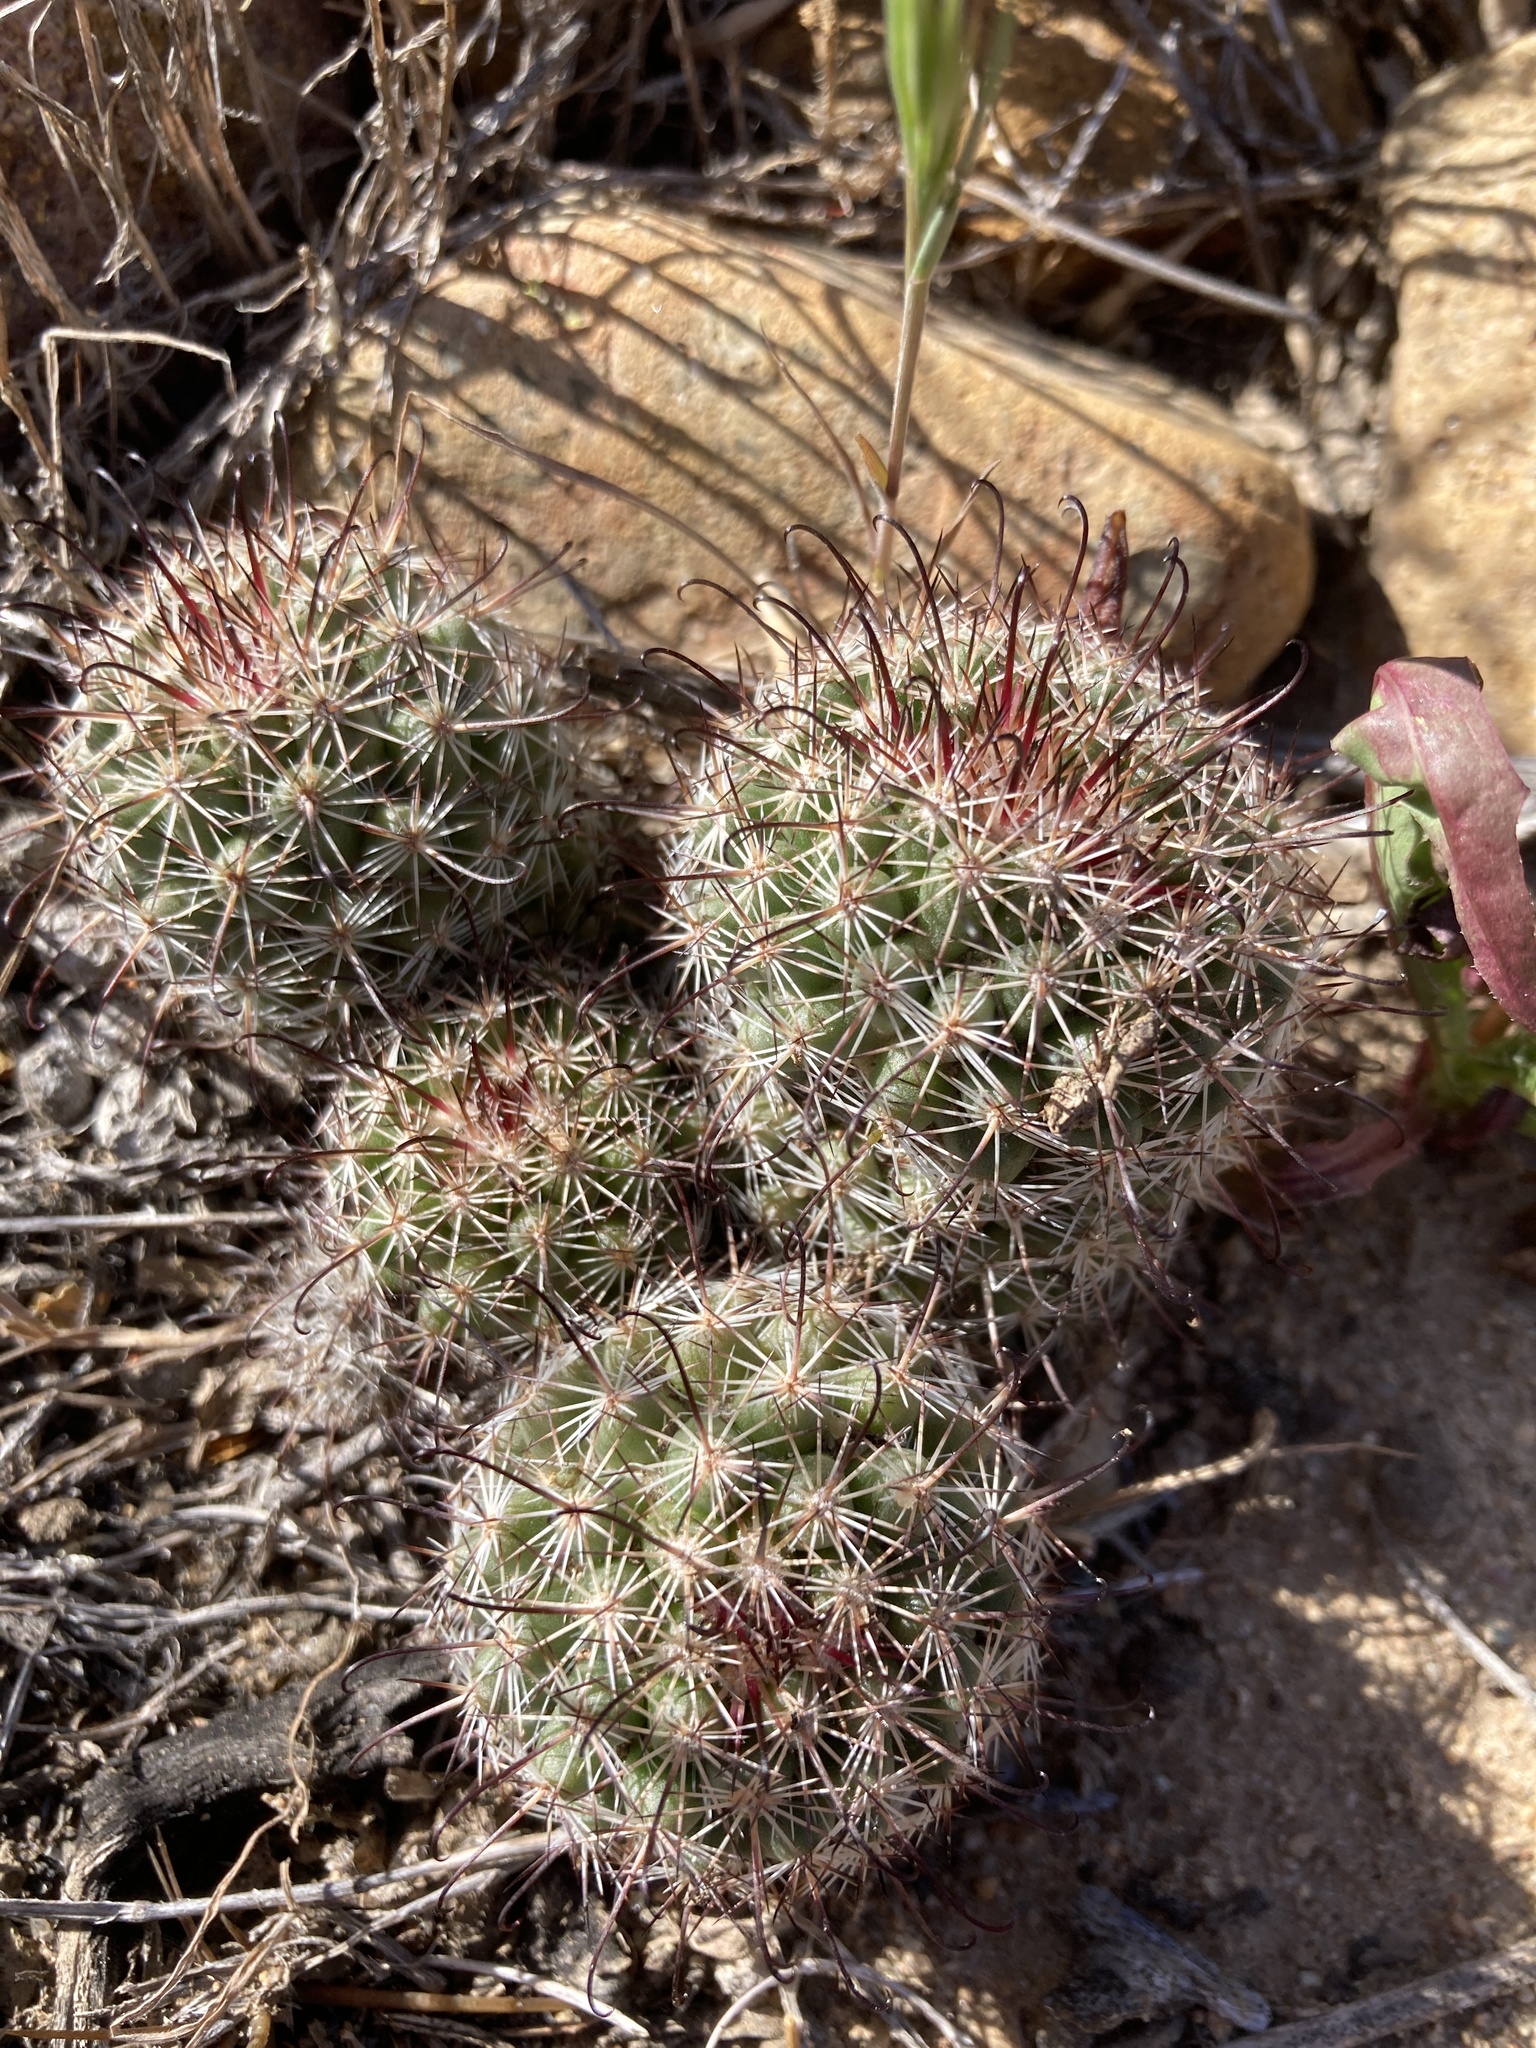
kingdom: Plantae
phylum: Tracheophyta
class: Magnoliopsida
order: Caryophyllales
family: Cactaceae
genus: Cochemiea
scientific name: Cochemiea dioica
